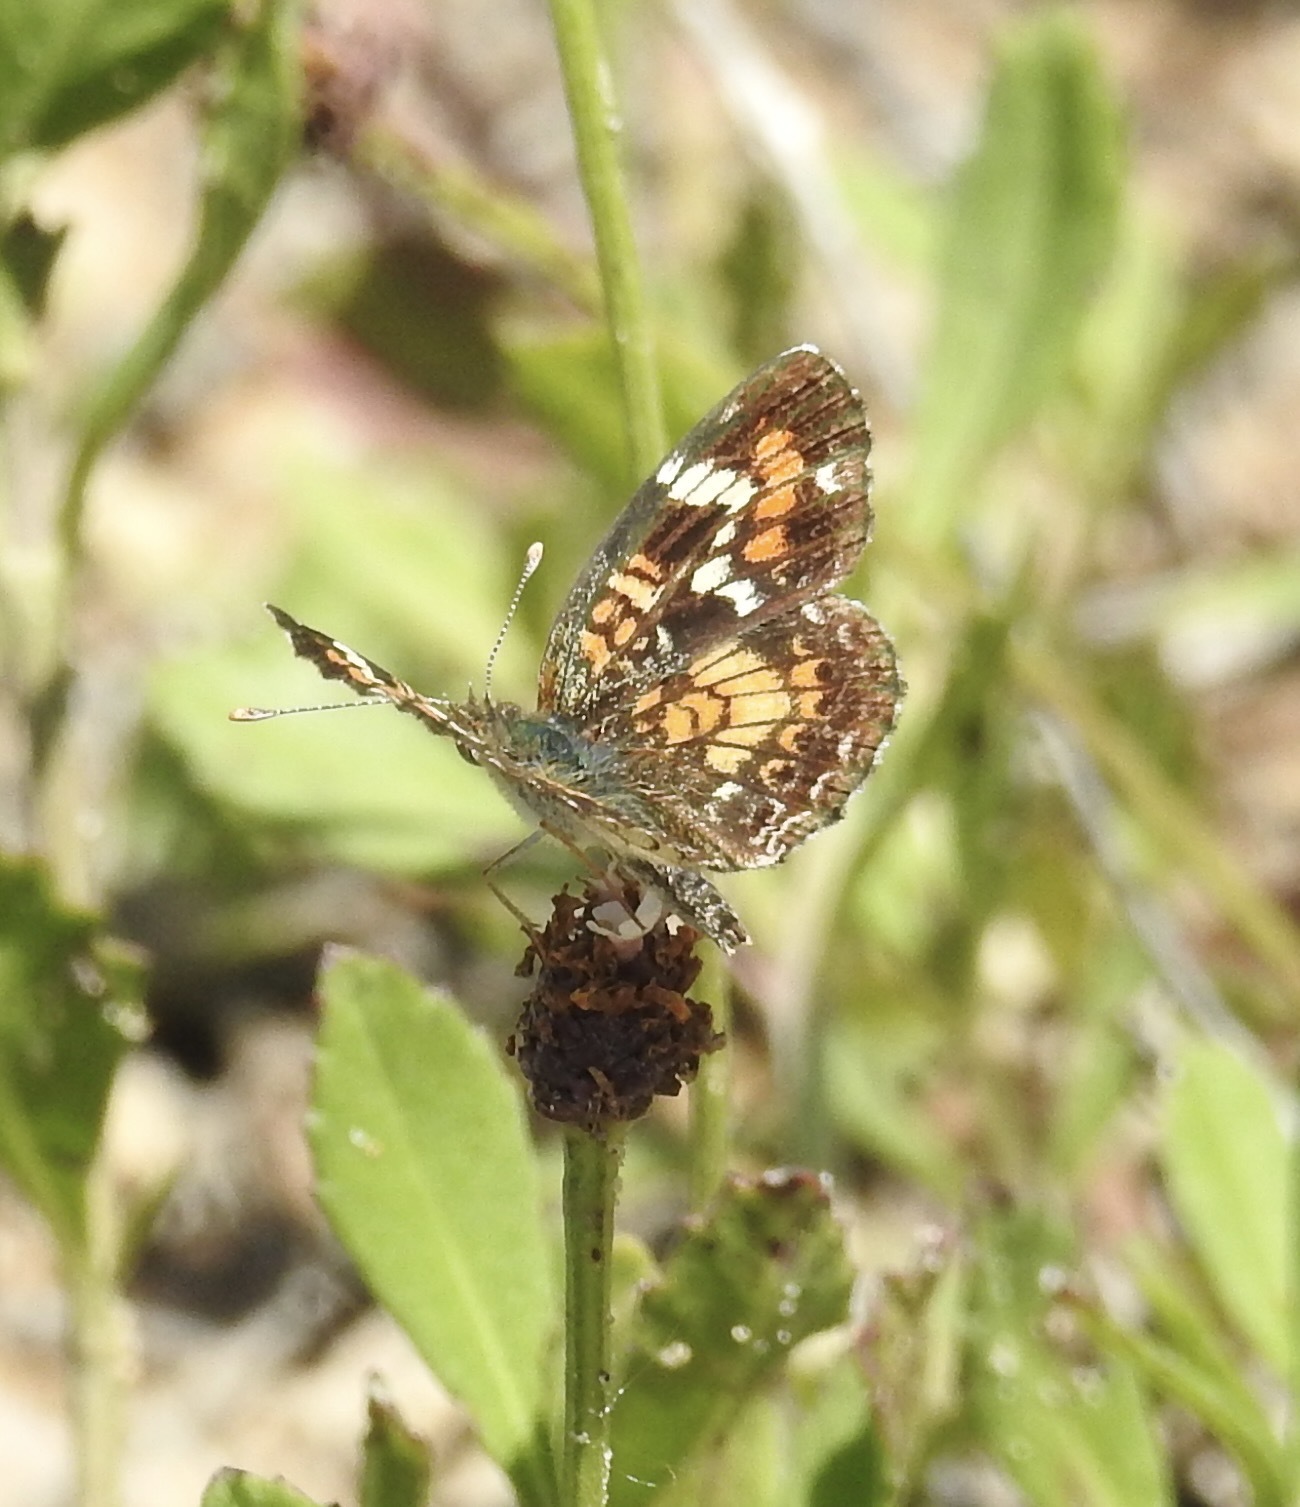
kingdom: Animalia
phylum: Arthropoda
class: Insecta
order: Lepidoptera
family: Nymphalidae
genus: Phyciodes
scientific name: Phyciodes phaon
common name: Phaon crescent
